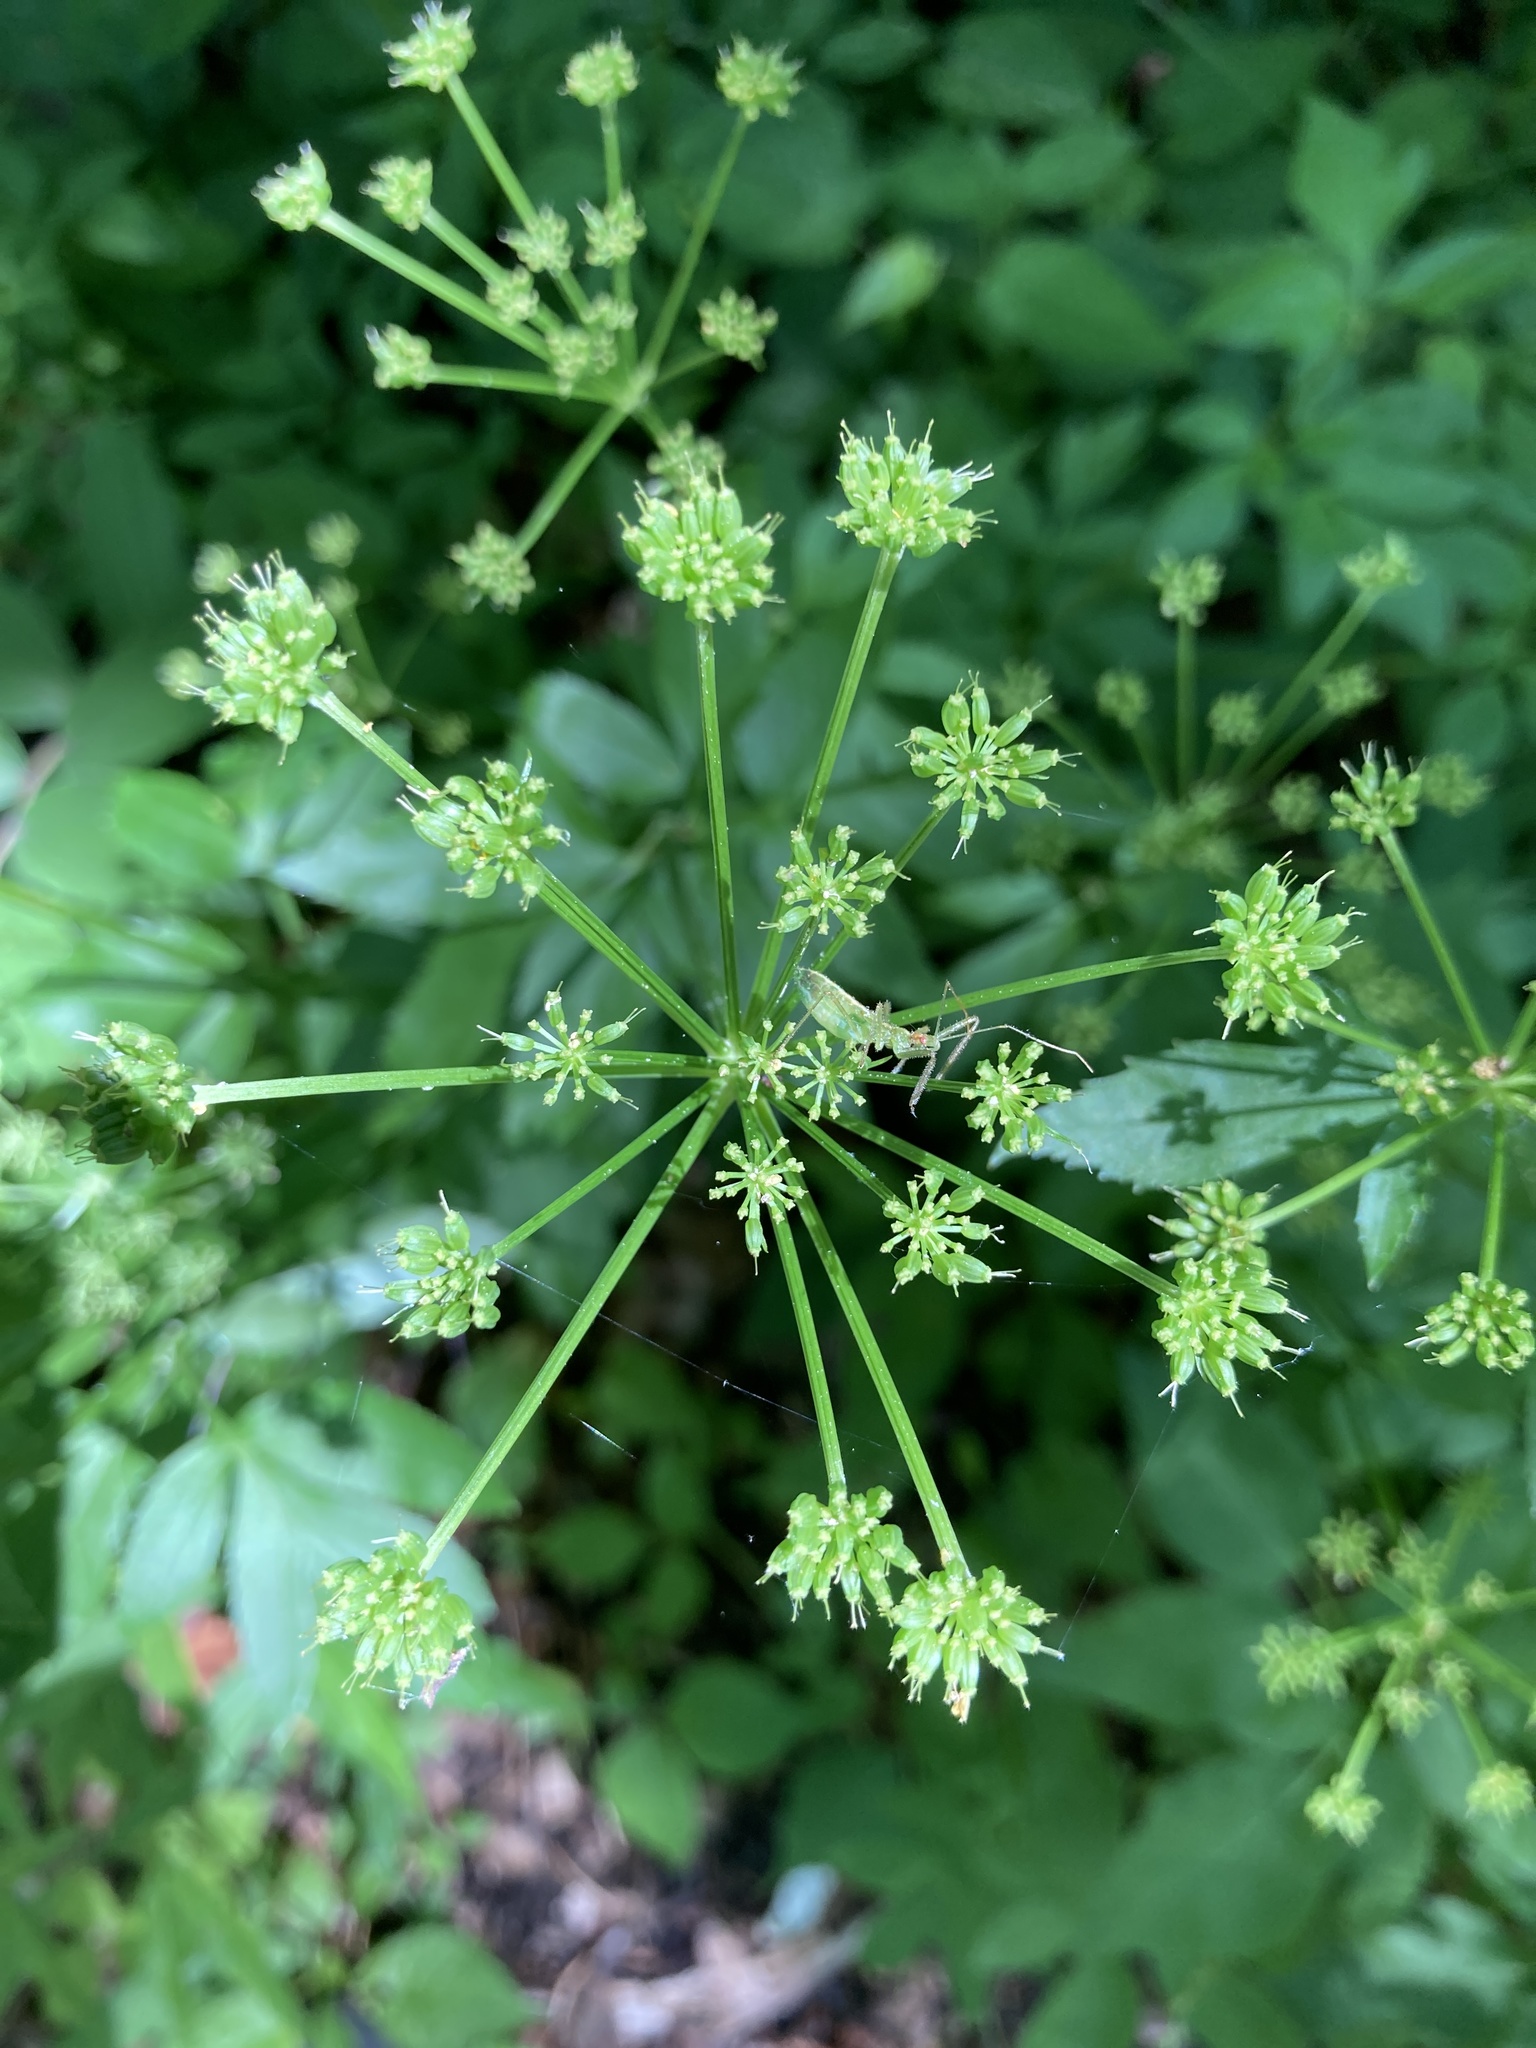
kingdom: Plantae
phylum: Tracheophyta
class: Magnoliopsida
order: Apiales
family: Apiaceae
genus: Zizia
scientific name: Zizia aurea
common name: Golden alexanders
